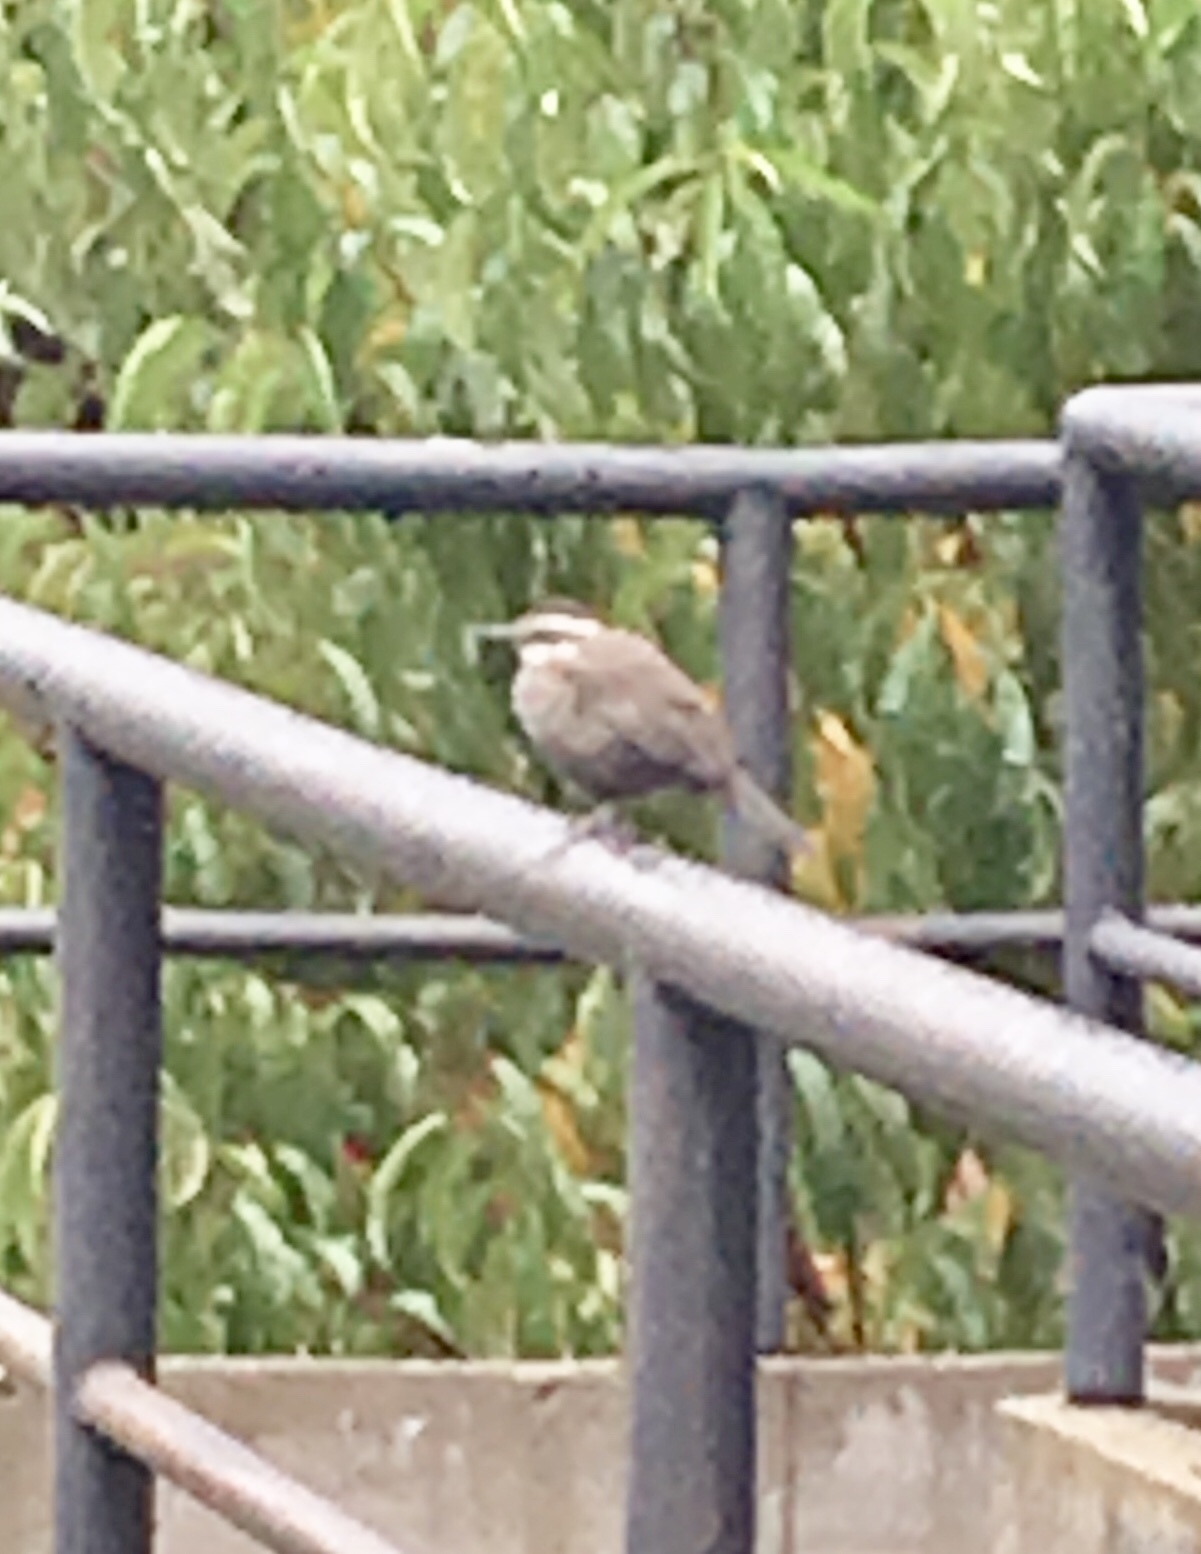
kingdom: Animalia
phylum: Chordata
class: Aves
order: Passeriformes
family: Furnariidae
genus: Cinclodes
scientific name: Cinclodes
